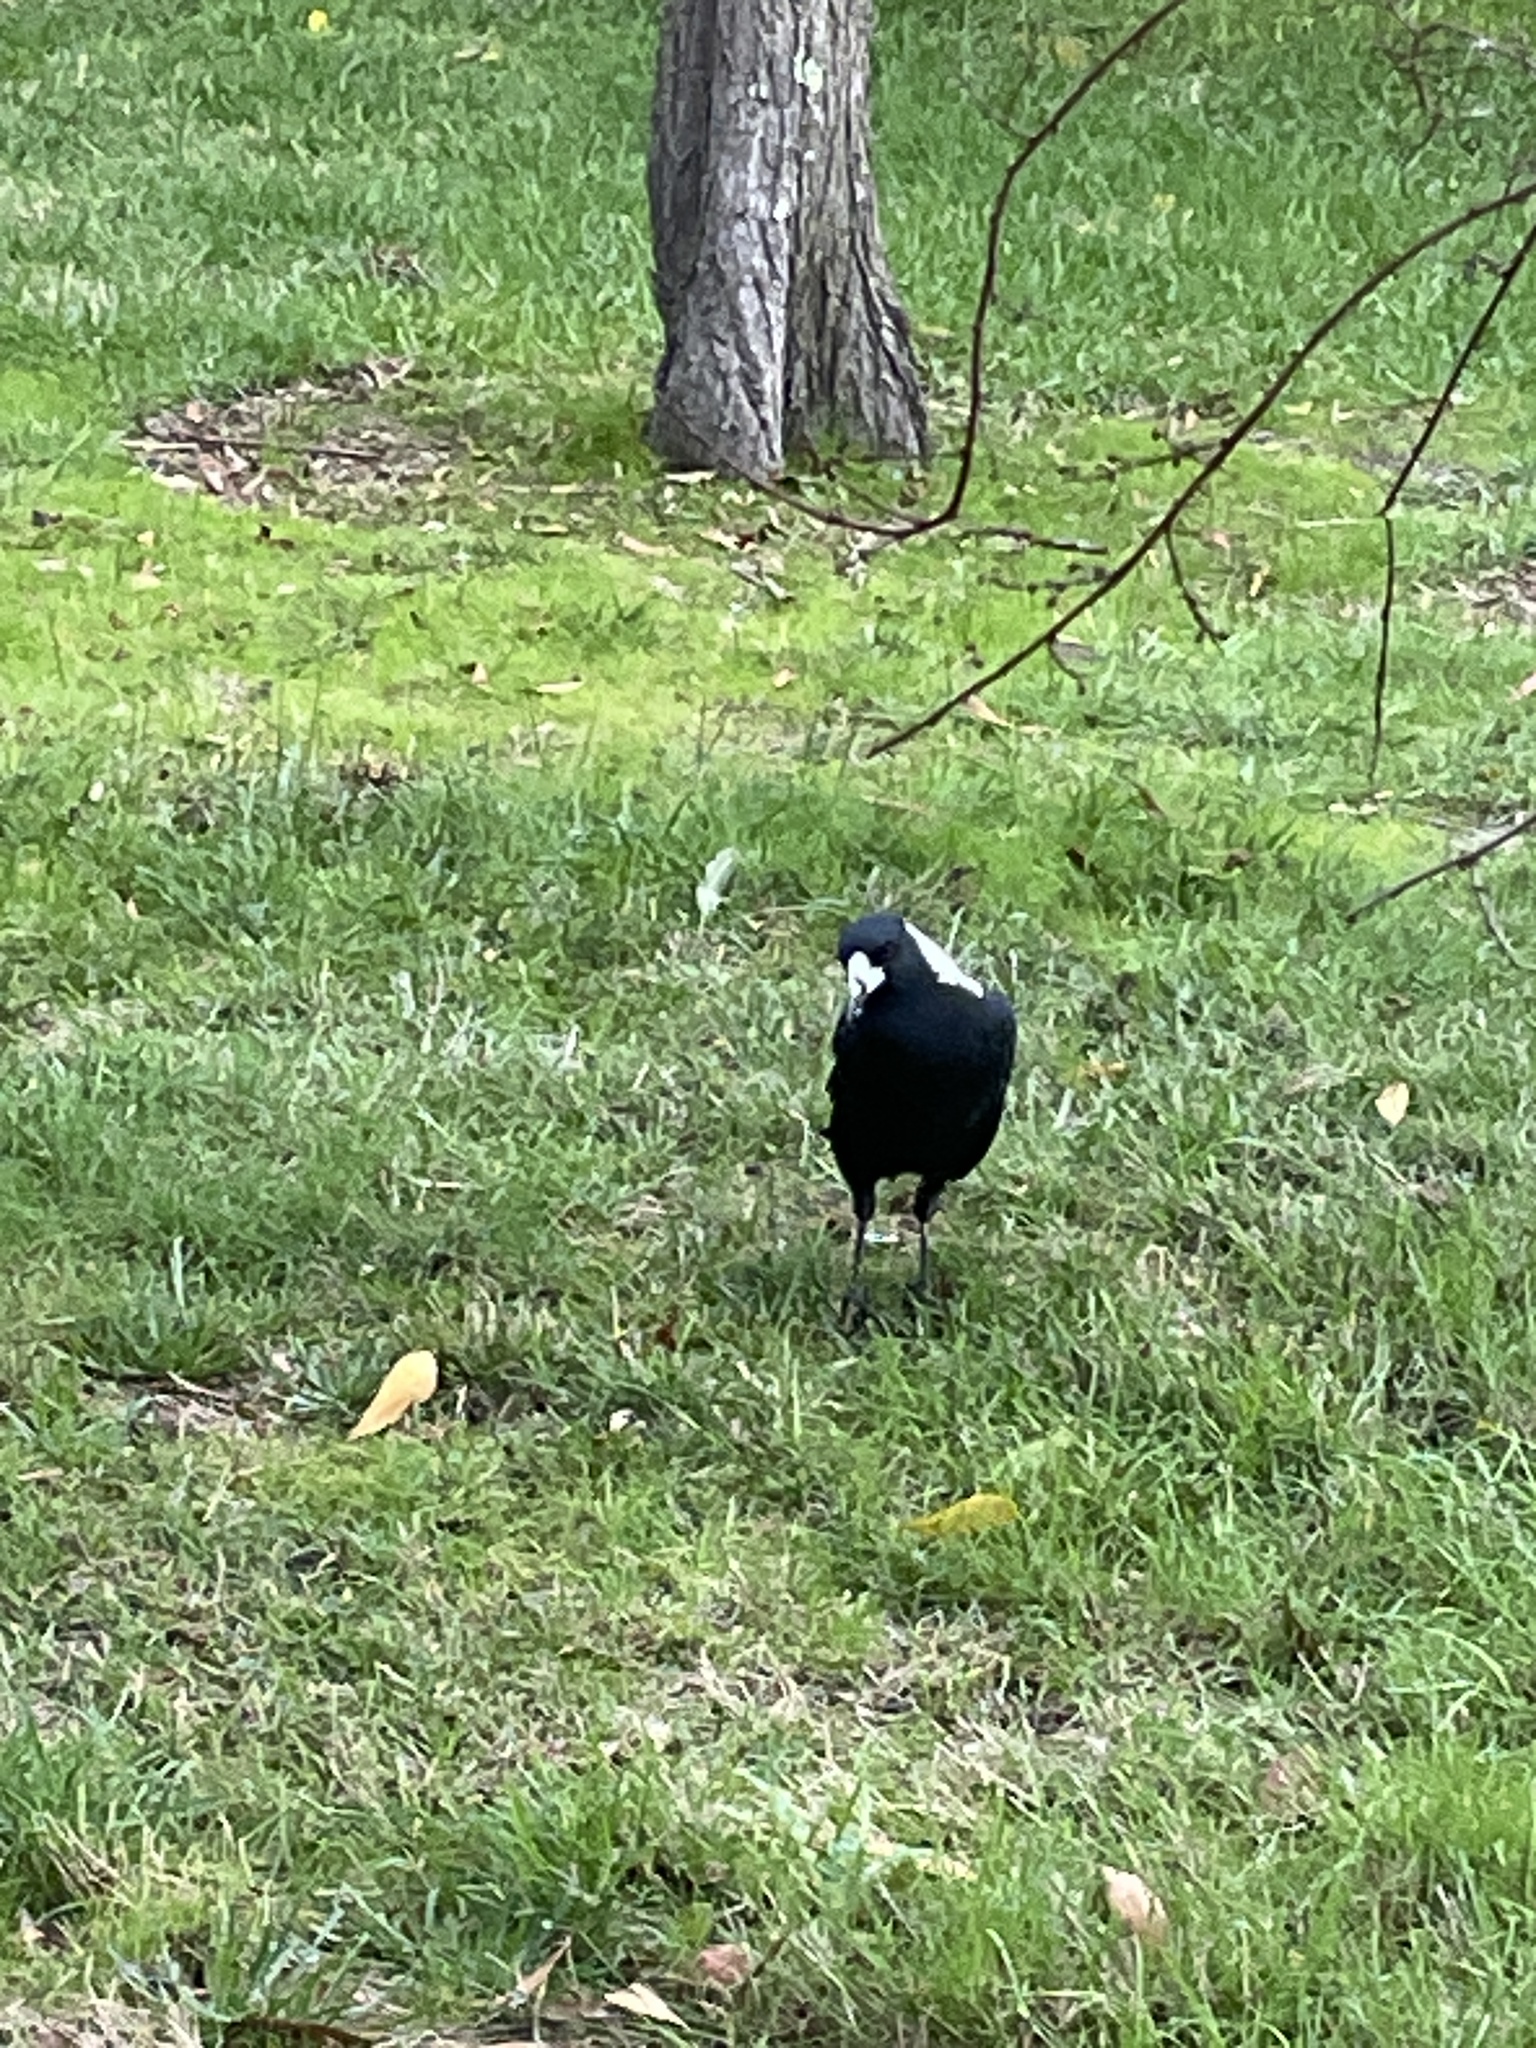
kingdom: Animalia
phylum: Chordata
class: Aves
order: Passeriformes
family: Cracticidae
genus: Gymnorhina
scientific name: Gymnorhina tibicen
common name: Australian magpie
